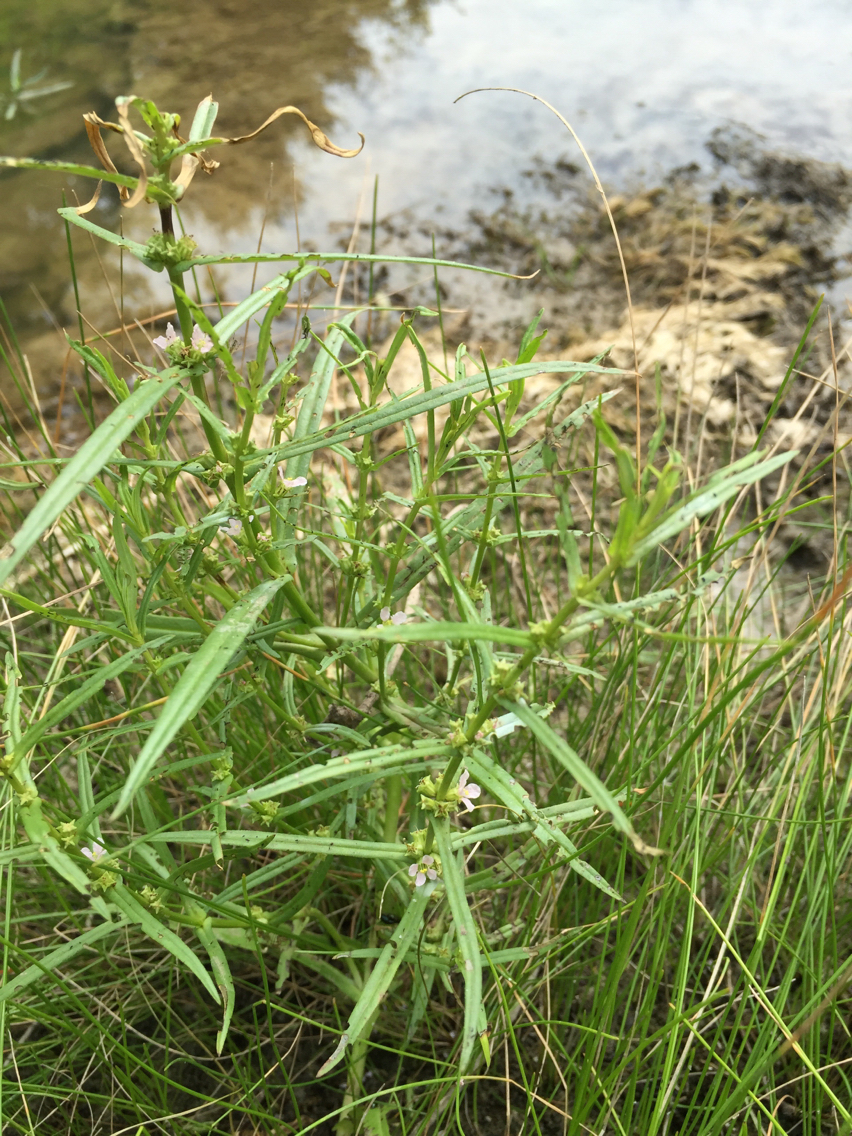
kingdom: Plantae
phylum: Tracheophyta
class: Magnoliopsida
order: Myrtales
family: Lythraceae
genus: Ammannia
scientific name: Ammannia coccinea
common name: Valley redstem
